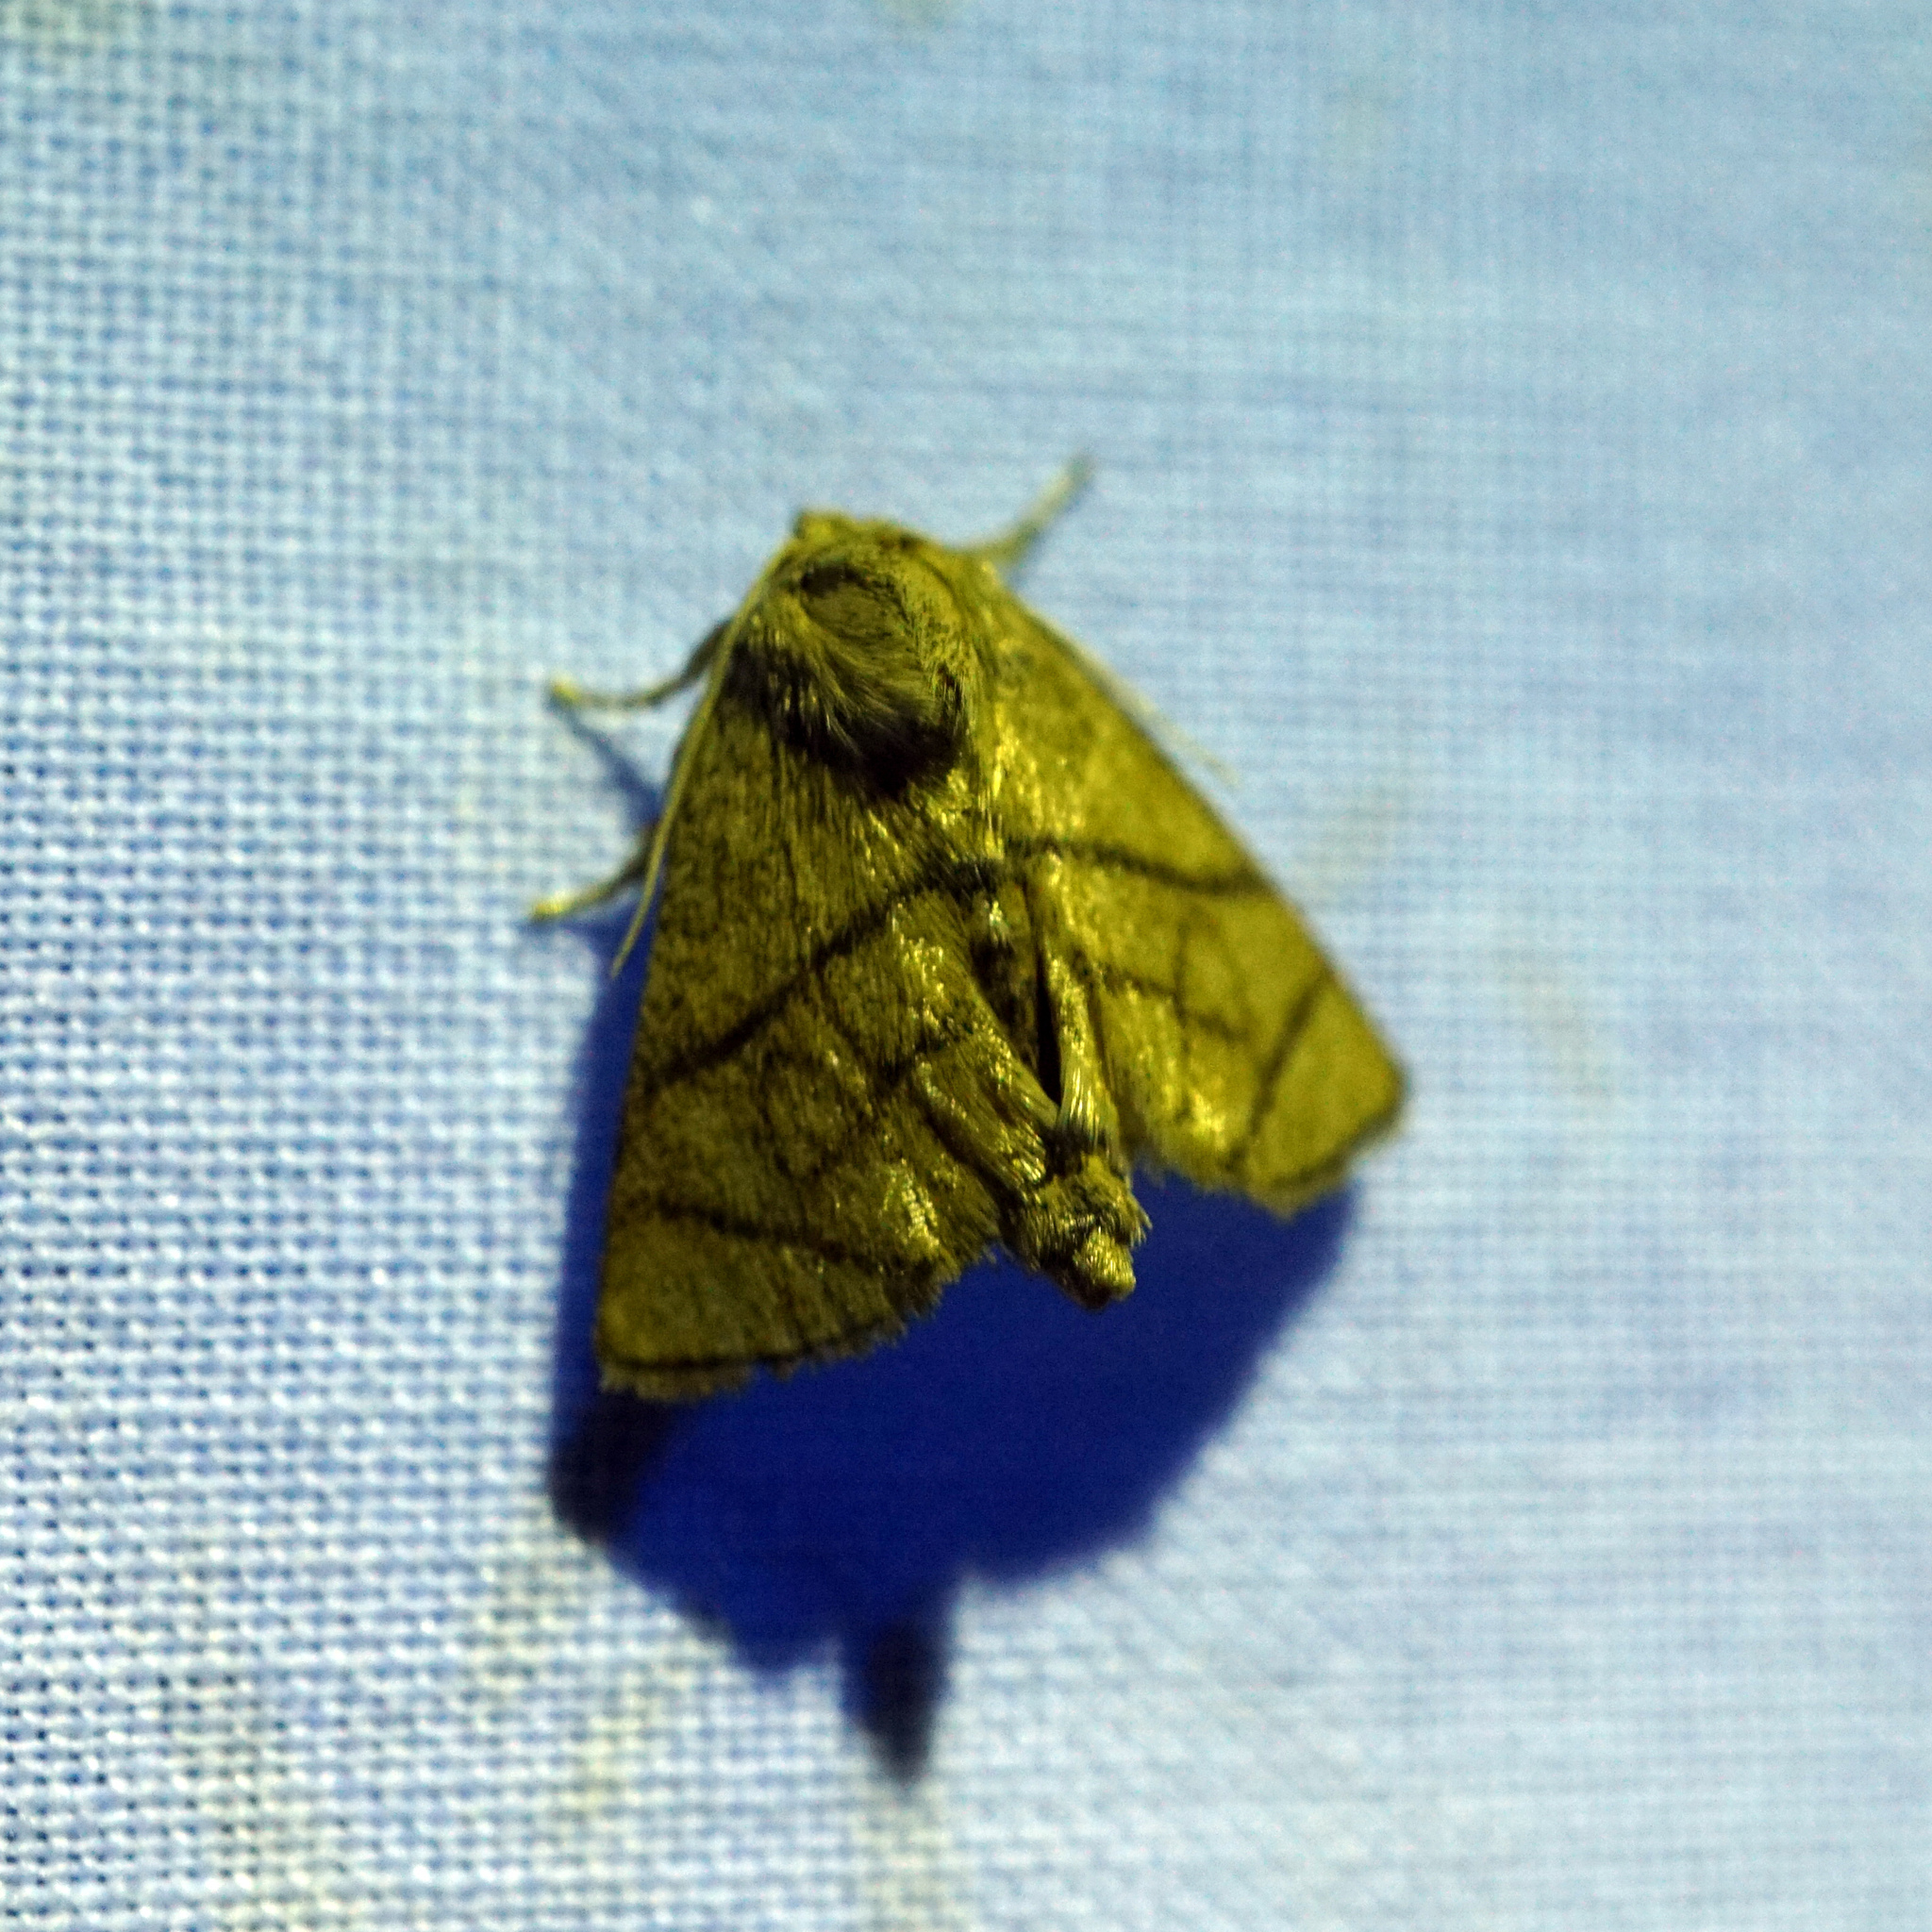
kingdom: Animalia
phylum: Arthropoda
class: Insecta
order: Lepidoptera
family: Limacodidae
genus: Apoda
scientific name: Apoda y-inversa
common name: Yellow-collared slug moth
